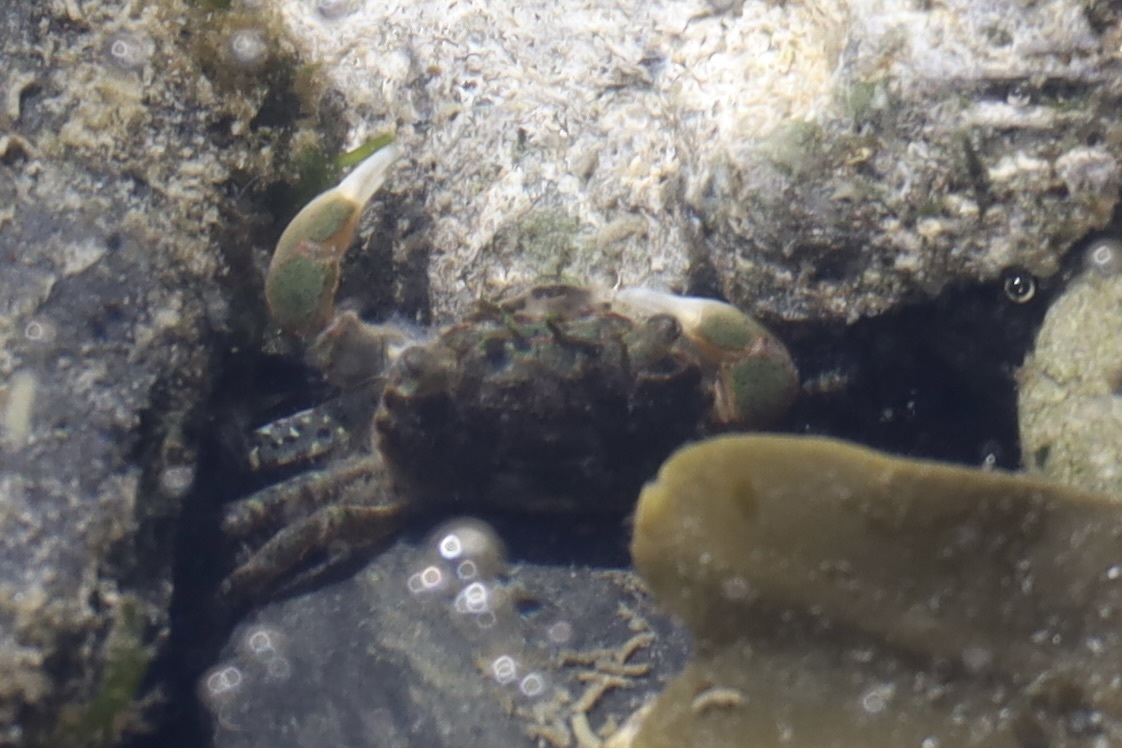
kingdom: Animalia
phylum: Arthropoda
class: Malacostraca
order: Decapoda
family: Varunidae
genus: Hemigrapsus
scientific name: Hemigrapsus oregonensis
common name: Yellow shore crab
